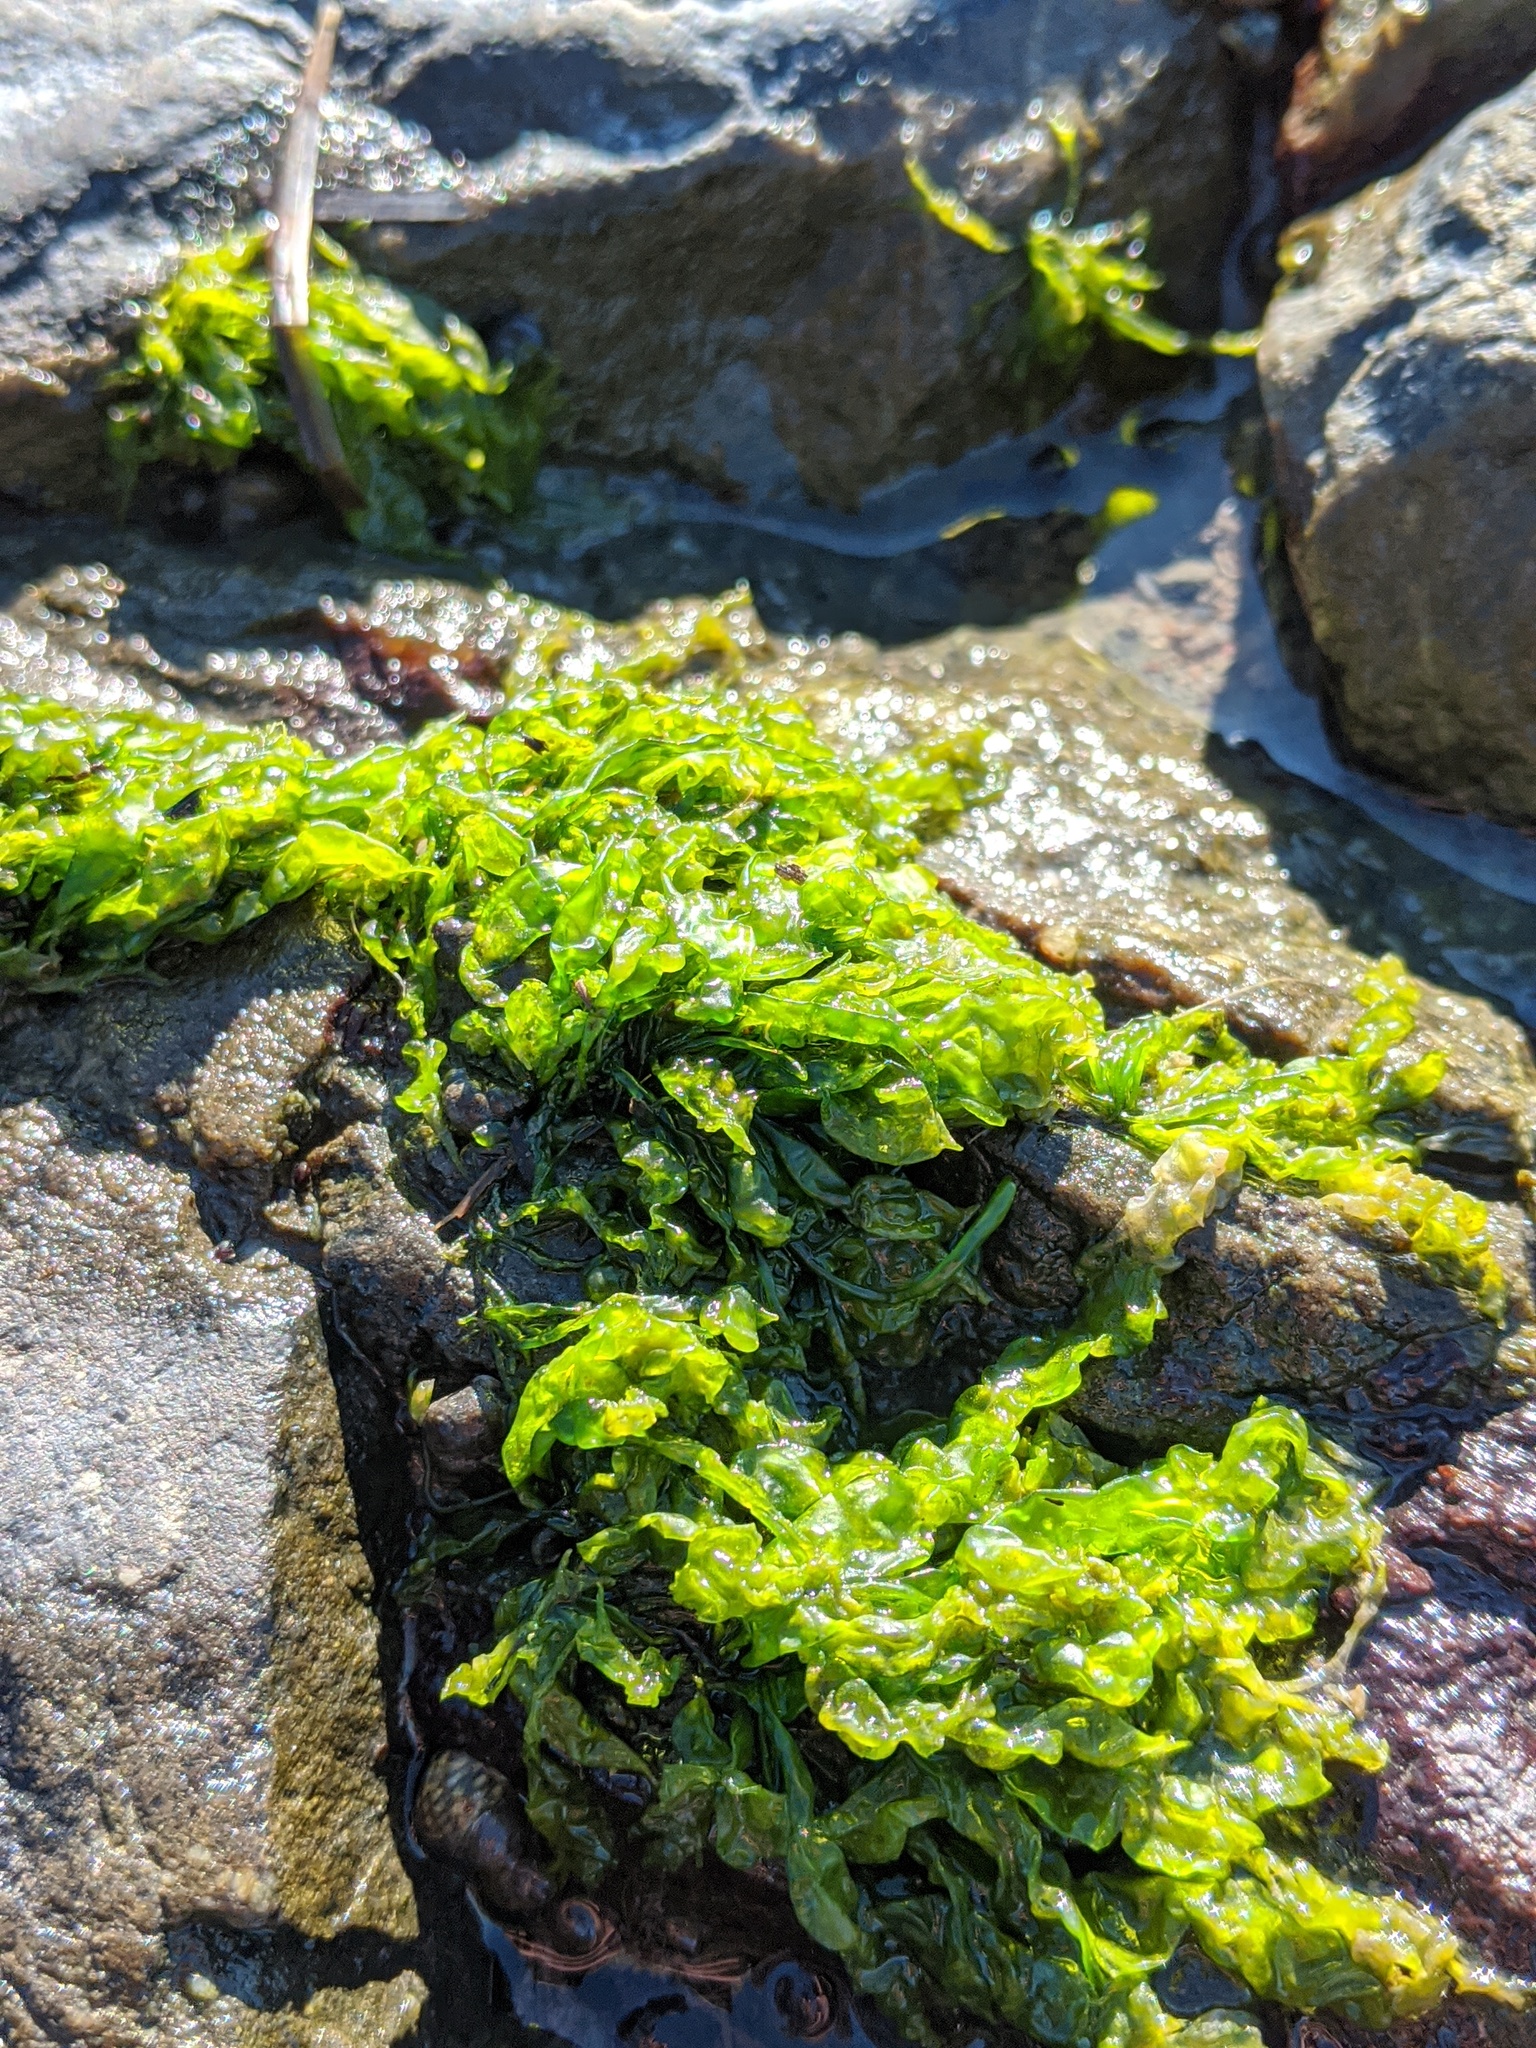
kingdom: Plantae
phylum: Chlorophyta
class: Ulvophyceae
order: Ulvales
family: Ulvaceae
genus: Ulva
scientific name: Ulva lactuca
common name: Sea lettuce
